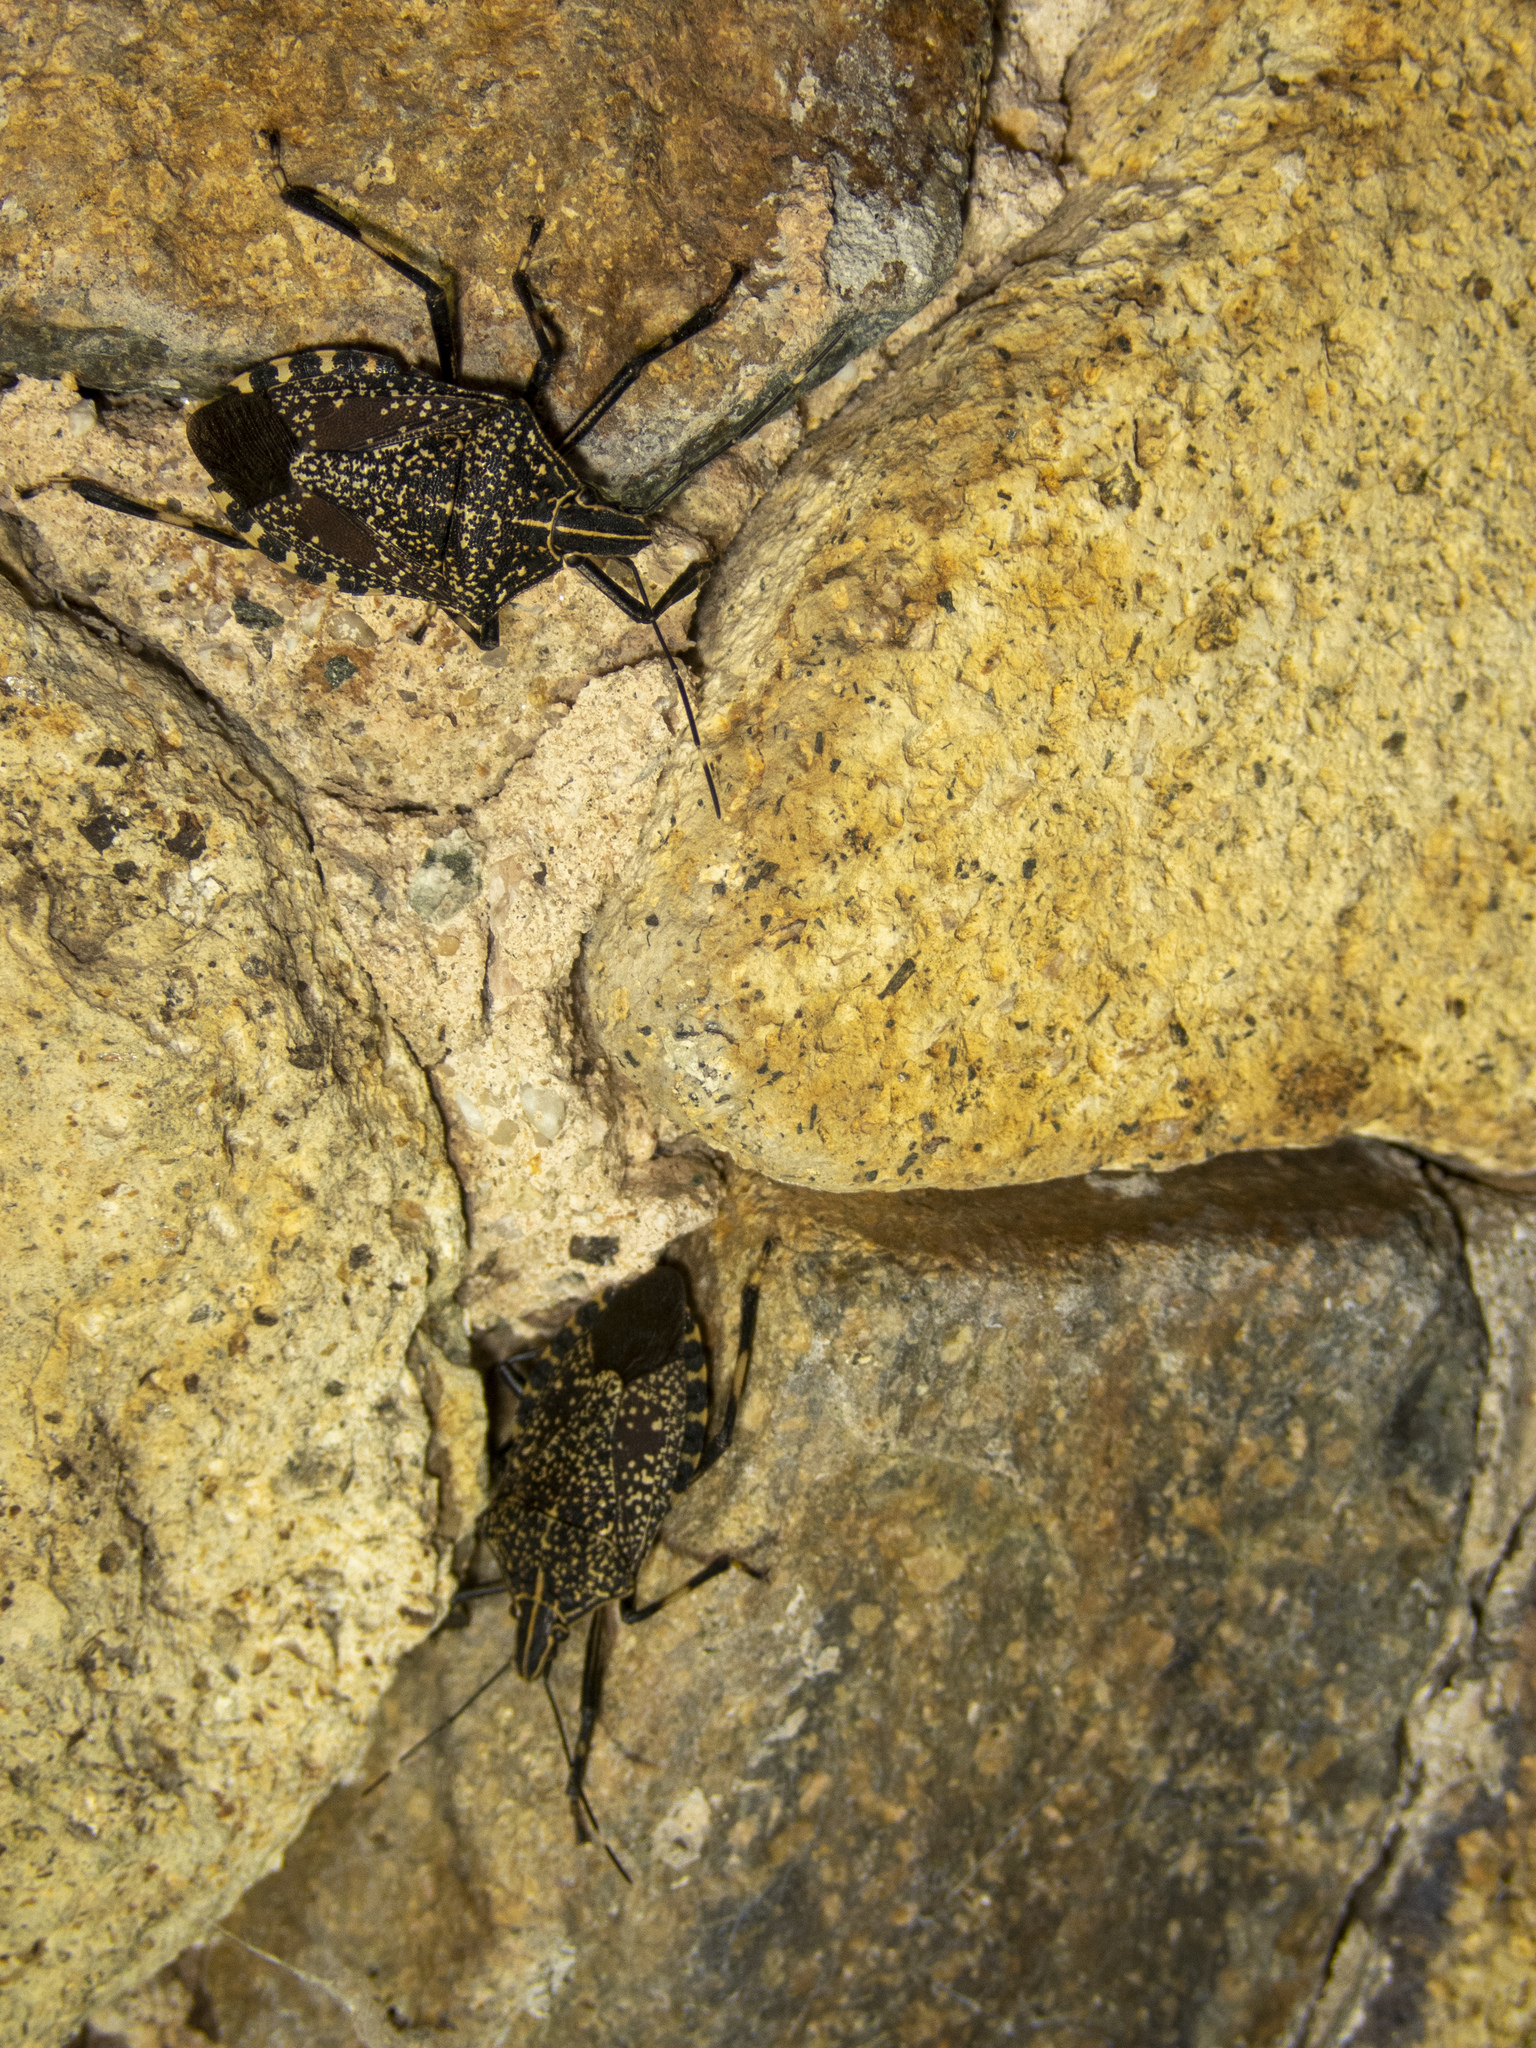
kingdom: Animalia
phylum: Arthropoda
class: Insecta
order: Hemiptera
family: Pentatomidae
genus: Erthesina
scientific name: Erthesina fullo
